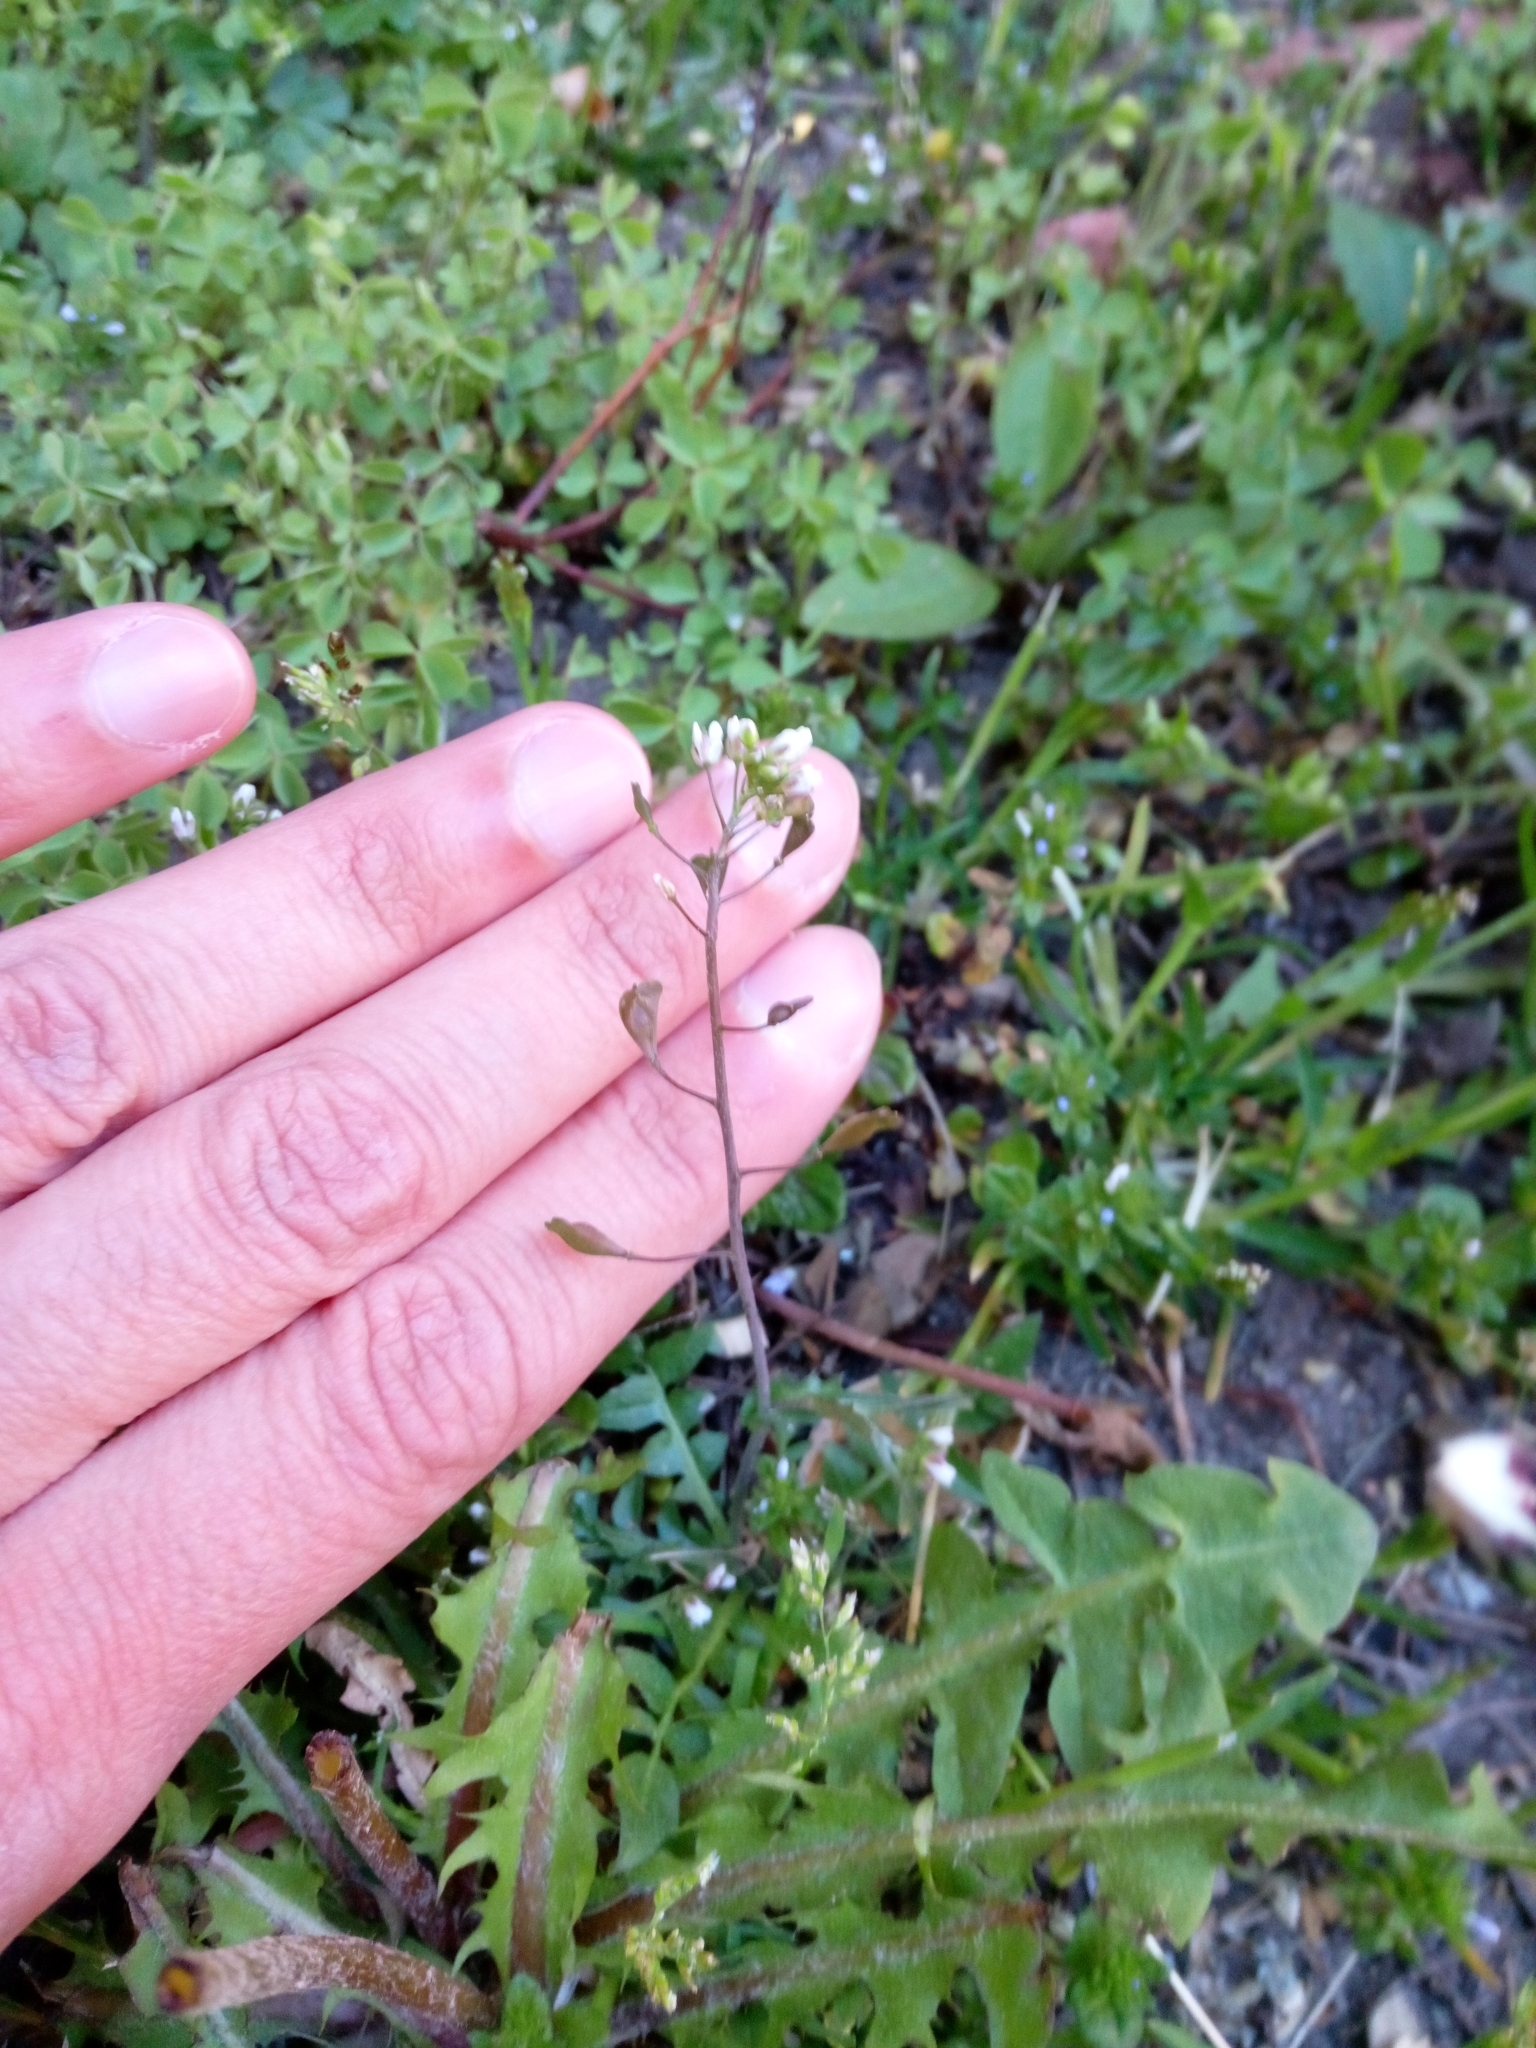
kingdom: Plantae
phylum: Tracheophyta
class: Magnoliopsida
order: Brassicales
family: Brassicaceae
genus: Capsella
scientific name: Capsella bursa-pastoris
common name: Shepherd's purse
